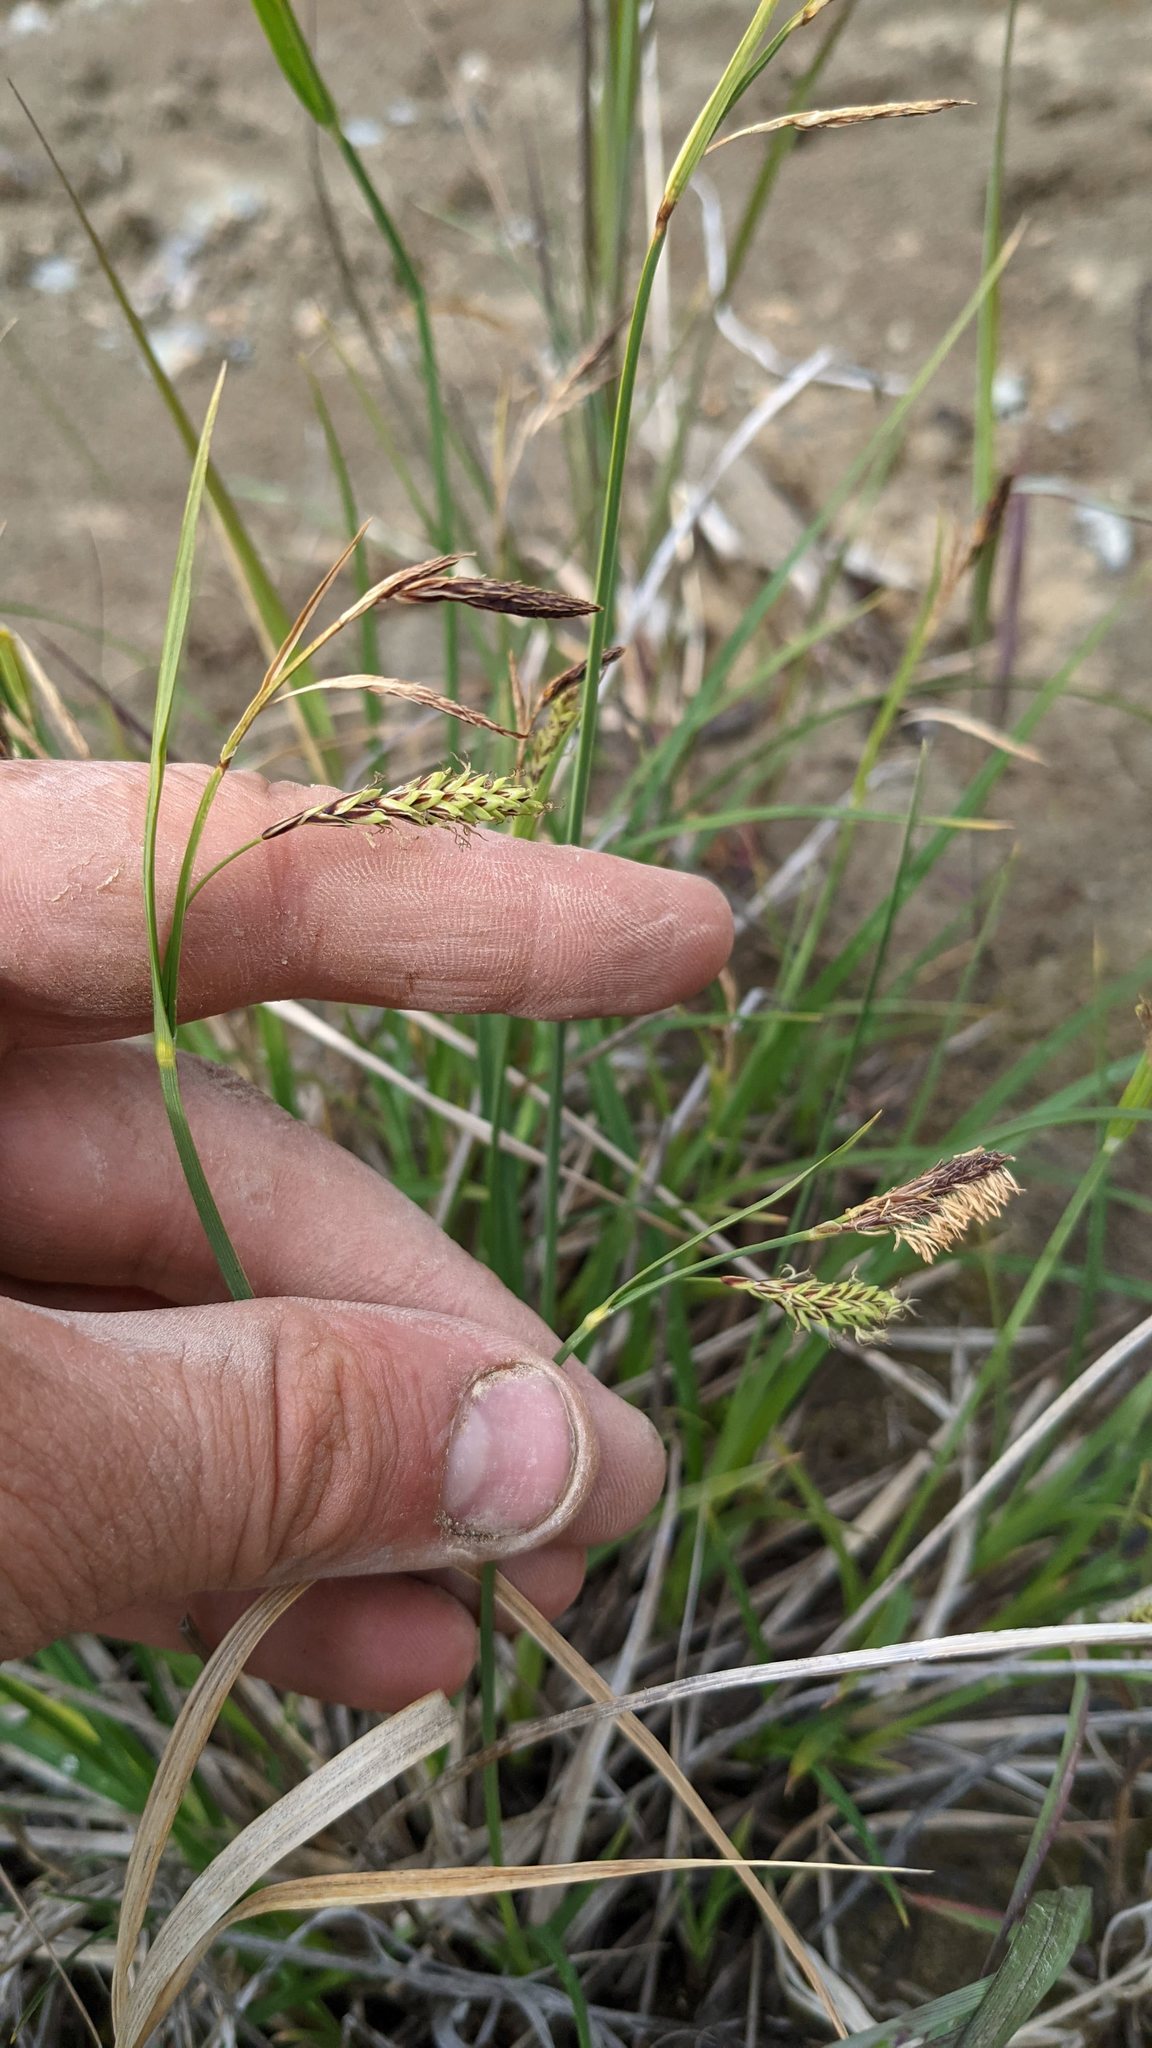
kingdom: Plantae
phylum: Tracheophyta
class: Liliopsida
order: Poales
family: Cyperaceae
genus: Carex
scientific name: Carex spectabilis
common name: Northwestern showy sedge
